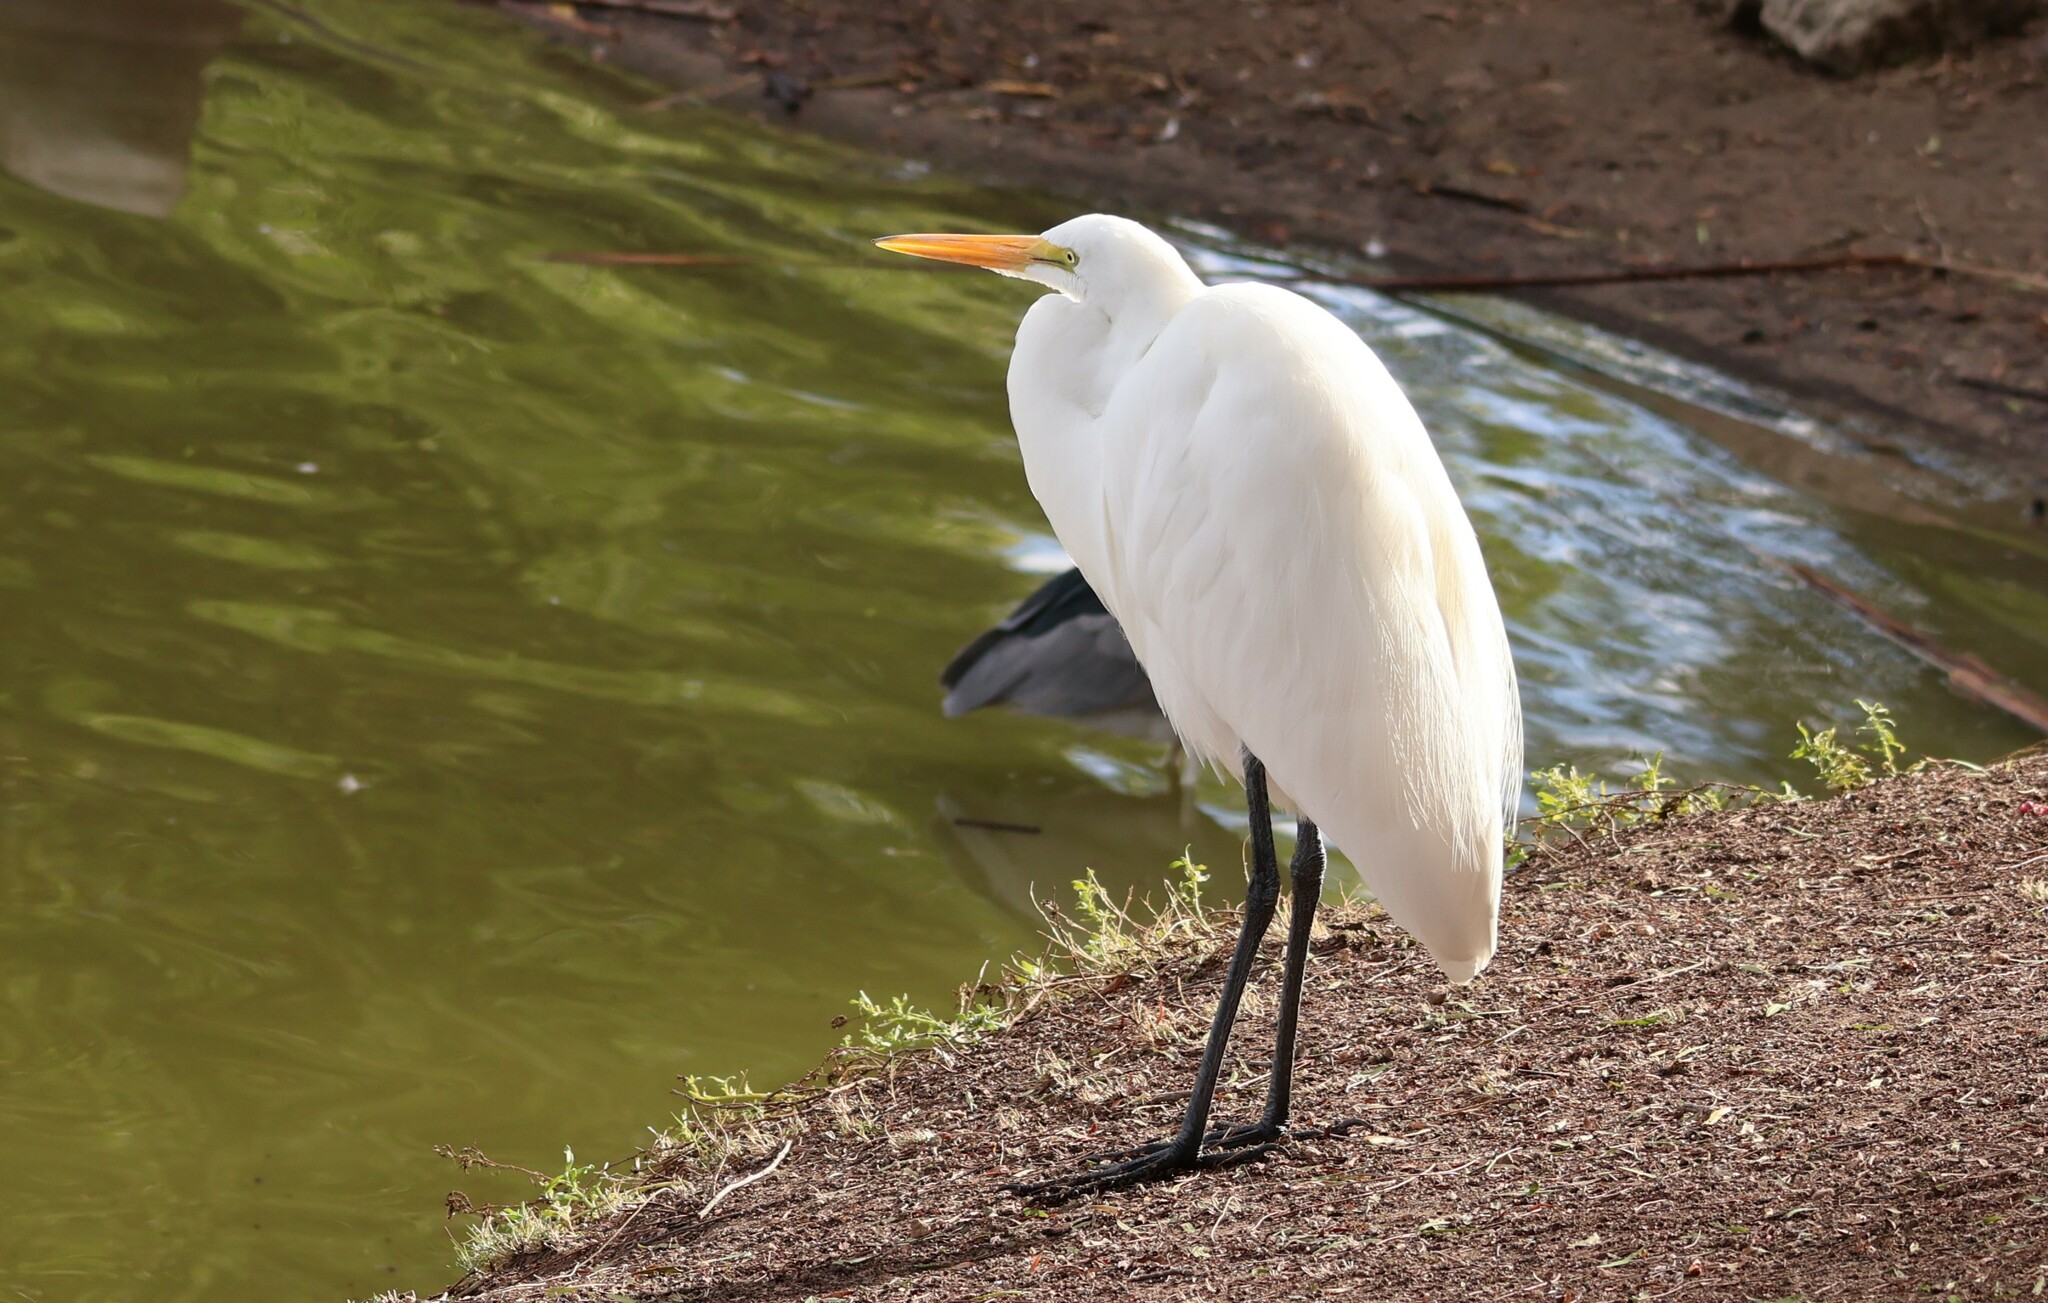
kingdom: Animalia
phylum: Chordata
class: Aves
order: Pelecaniformes
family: Ardeidae
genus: Ardea
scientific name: Ardea alba
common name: Great egret
